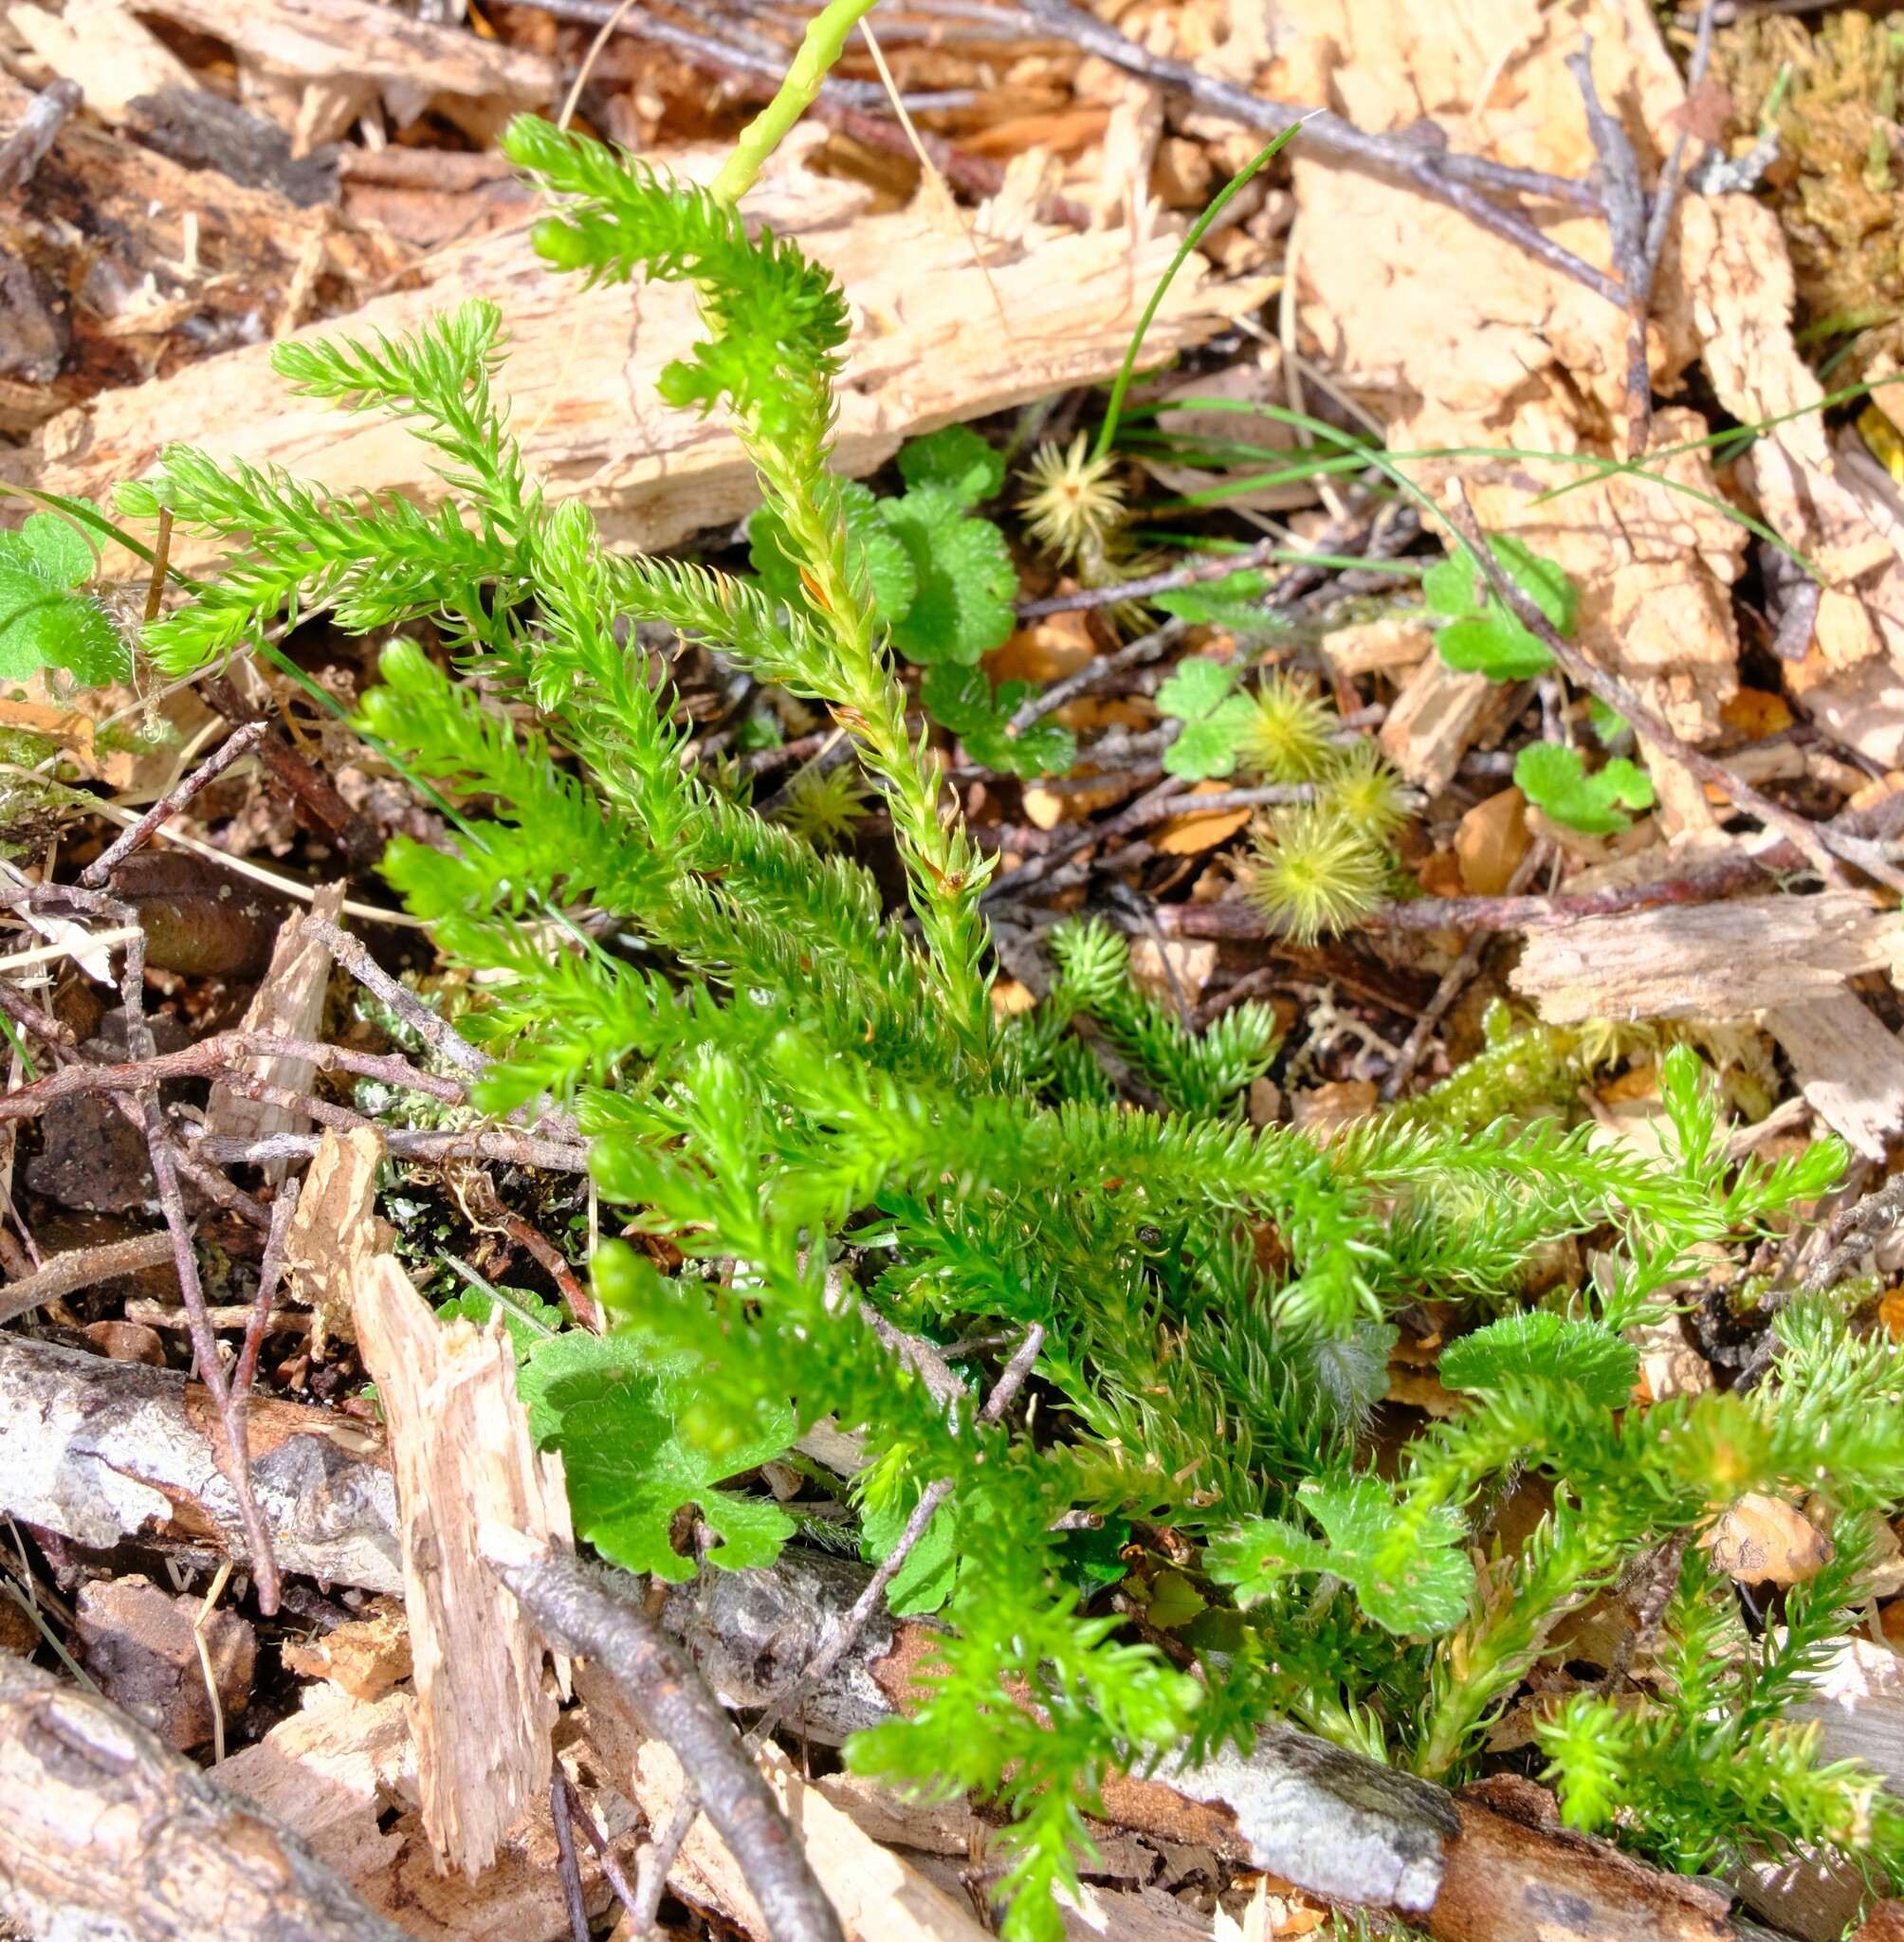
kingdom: Plantae
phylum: Tracheophyta
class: Lycopodiopsida
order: Lycopodiales
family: Lycopodiaceae
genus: Austrolycopodium
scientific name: Austrolycopodium fastigiatum
